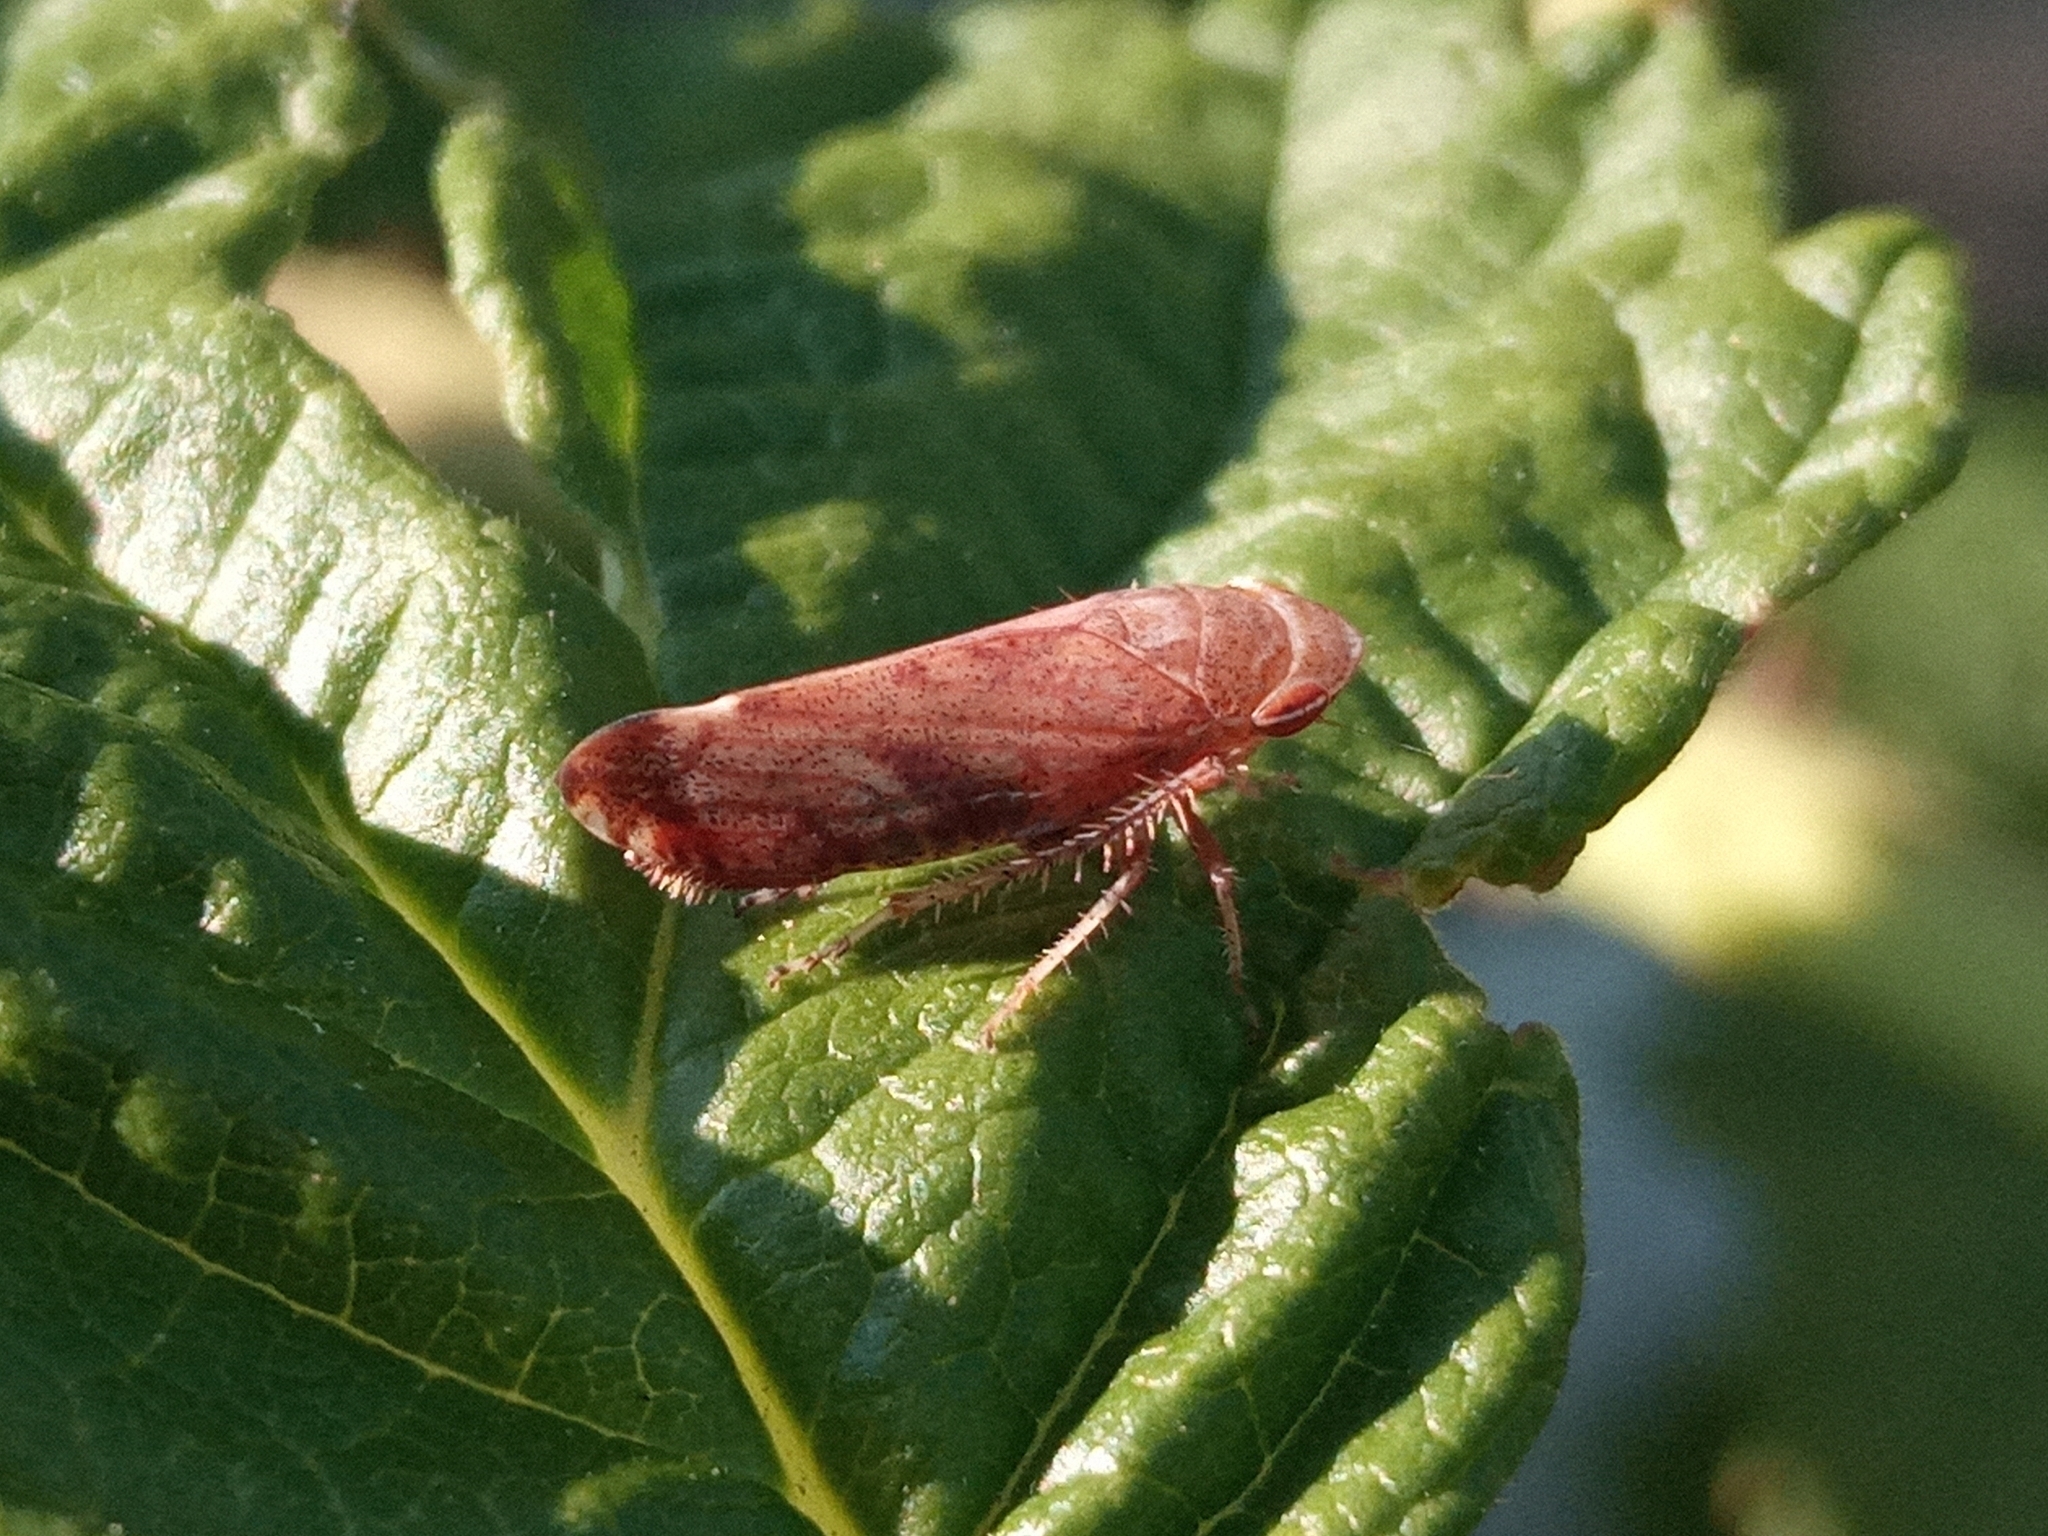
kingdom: Animalia
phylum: Arthropoda
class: Insecta
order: Hemiptera
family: Cicadellidae
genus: Fieberiella
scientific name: Fieberiella
